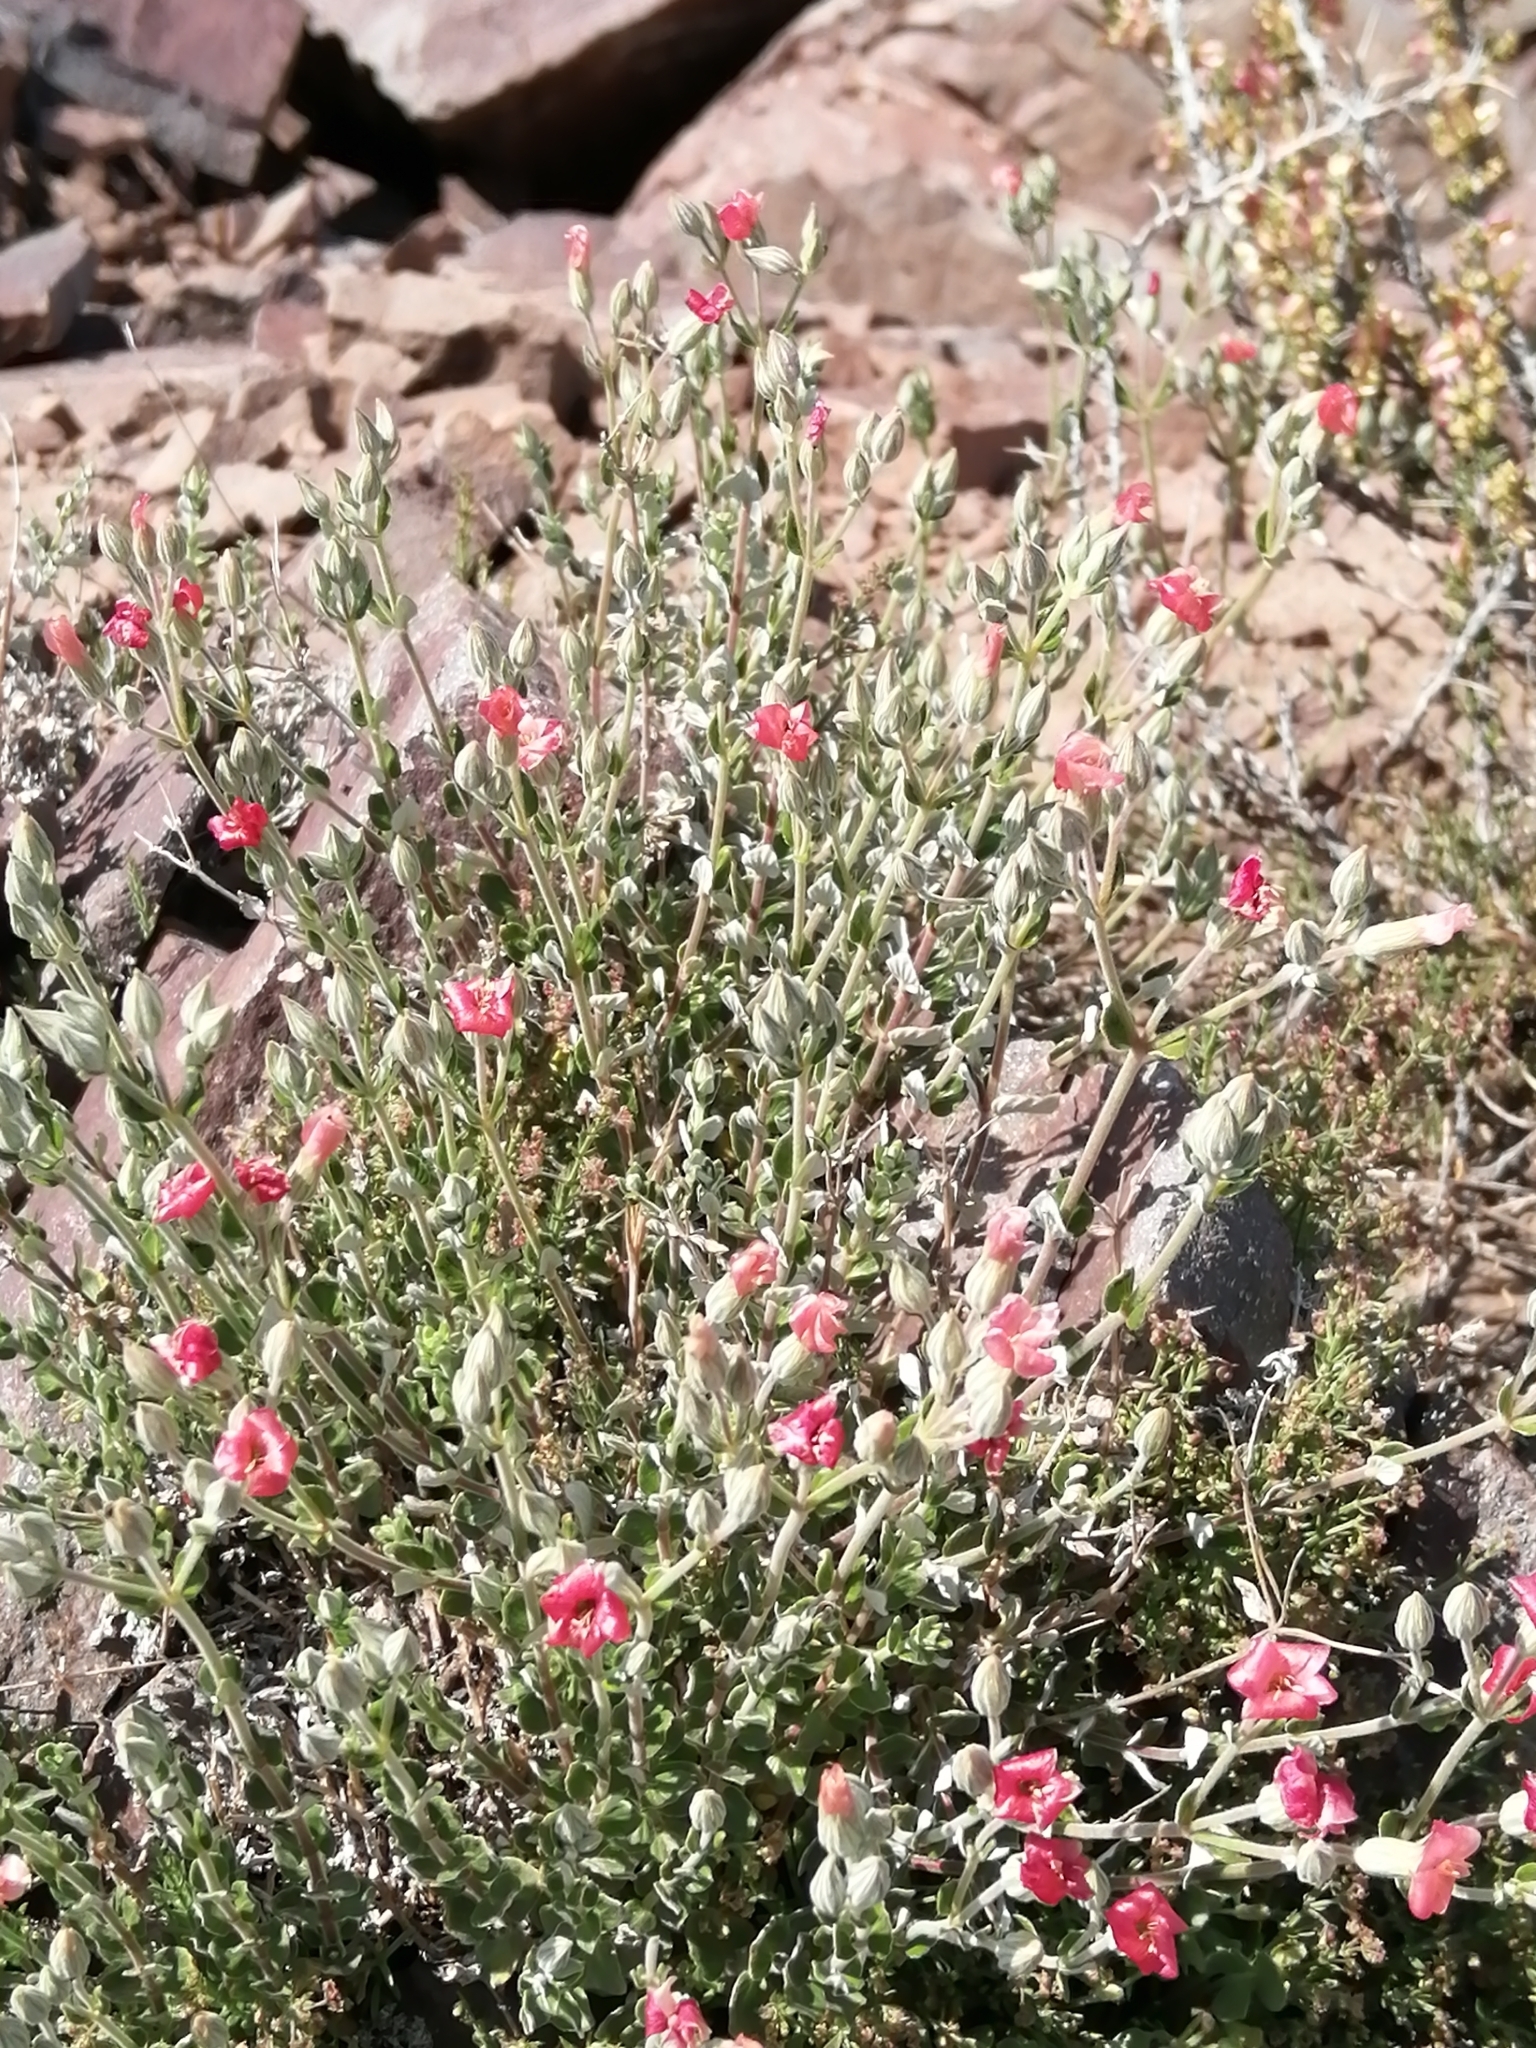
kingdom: Plantae
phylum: Tracheophyta
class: Magnoliopsida
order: Geraniales
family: Vivianiaceae
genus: Viviania
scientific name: Viviania marifolia
